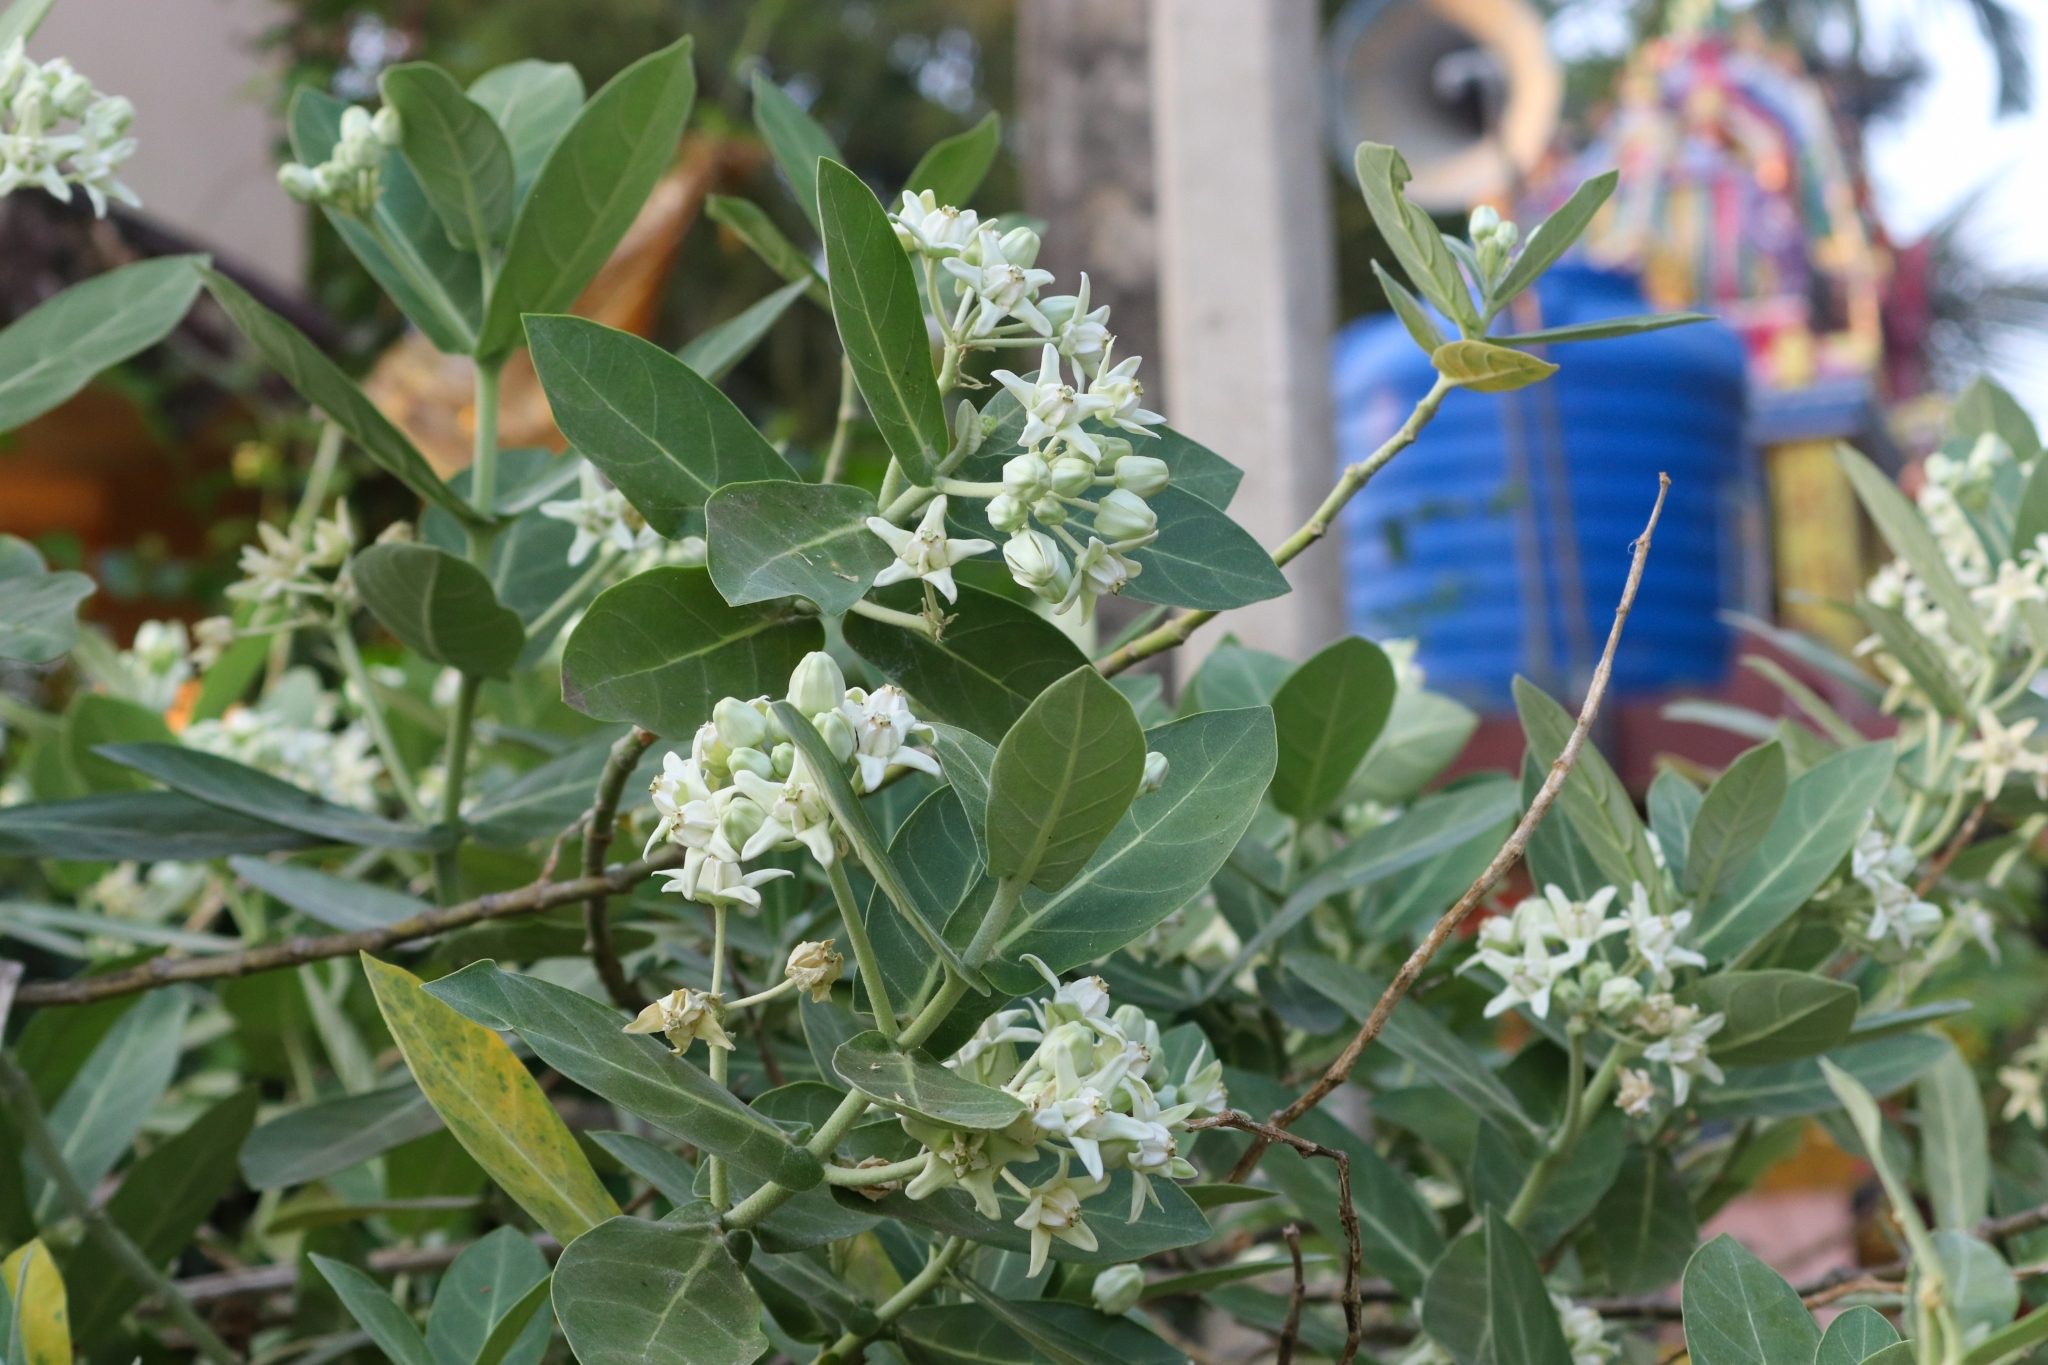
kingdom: Plantae
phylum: Tracheophyta
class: Magnoliopsida
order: Gentianales
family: Apocynaceae
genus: Calotropis
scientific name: Calotropis gigantea
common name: Crown flower
